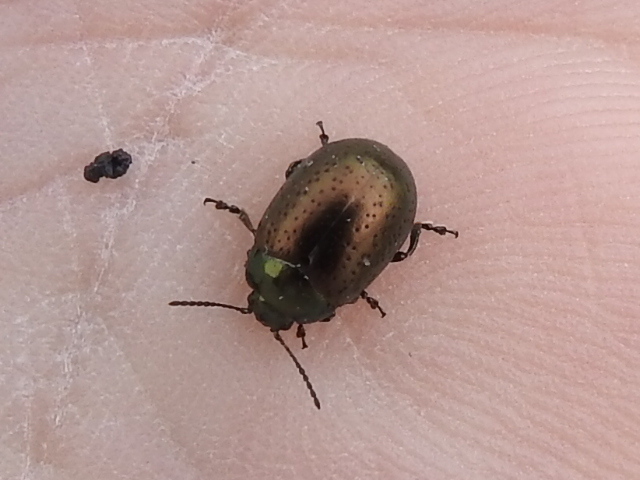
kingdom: Animalia
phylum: Arthropoda
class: Insecta
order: Coleoptera
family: Chrysomelidae
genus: Chrysolina
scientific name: Chrysolina hyperici
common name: St. johnswort beetle
